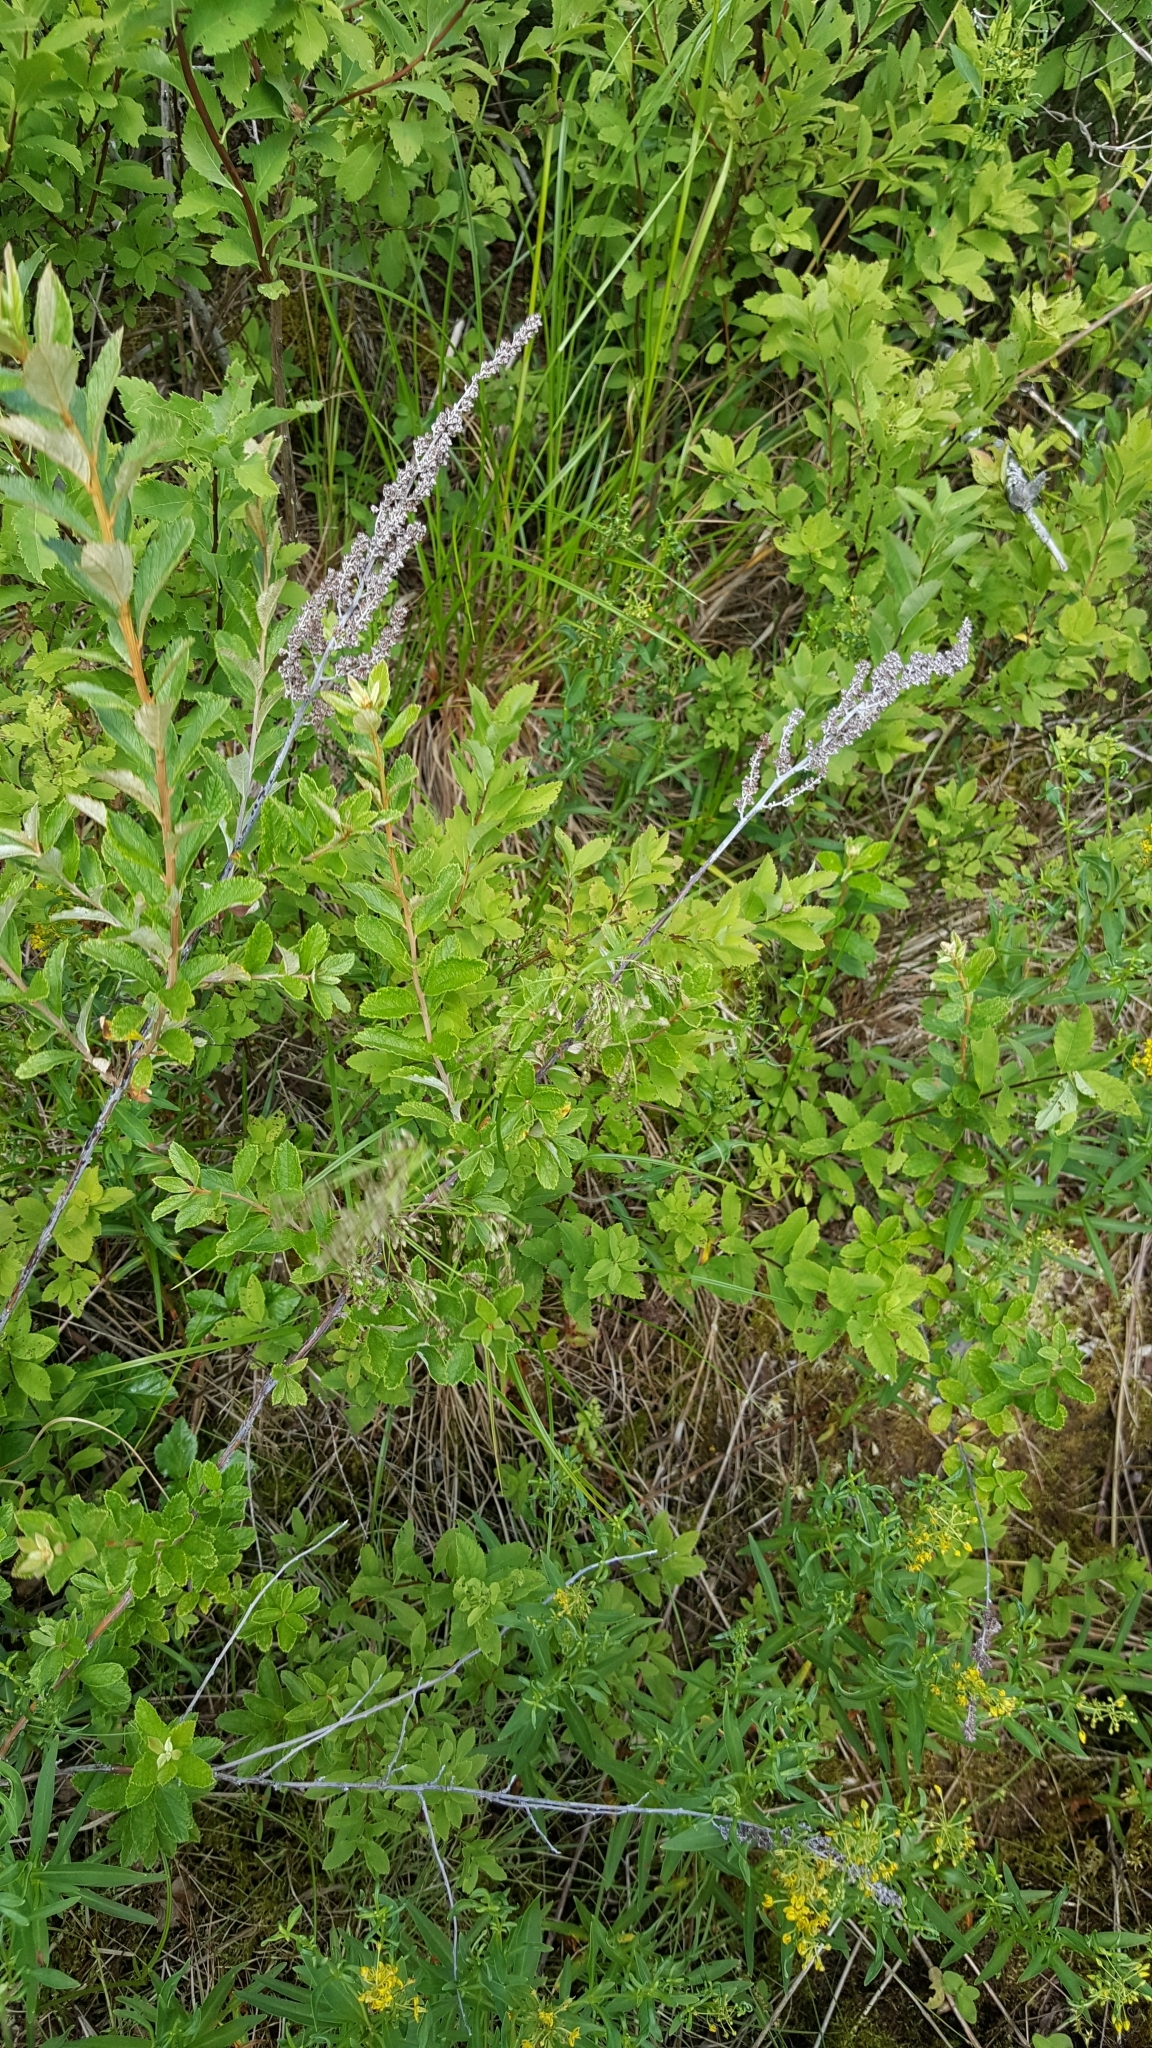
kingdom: Plantae
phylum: Tracheophyta
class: Magnoliopsida
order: Rosales
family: Rosaceae
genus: Spiraea
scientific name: Spiraea tomentosa
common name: Hardhack
